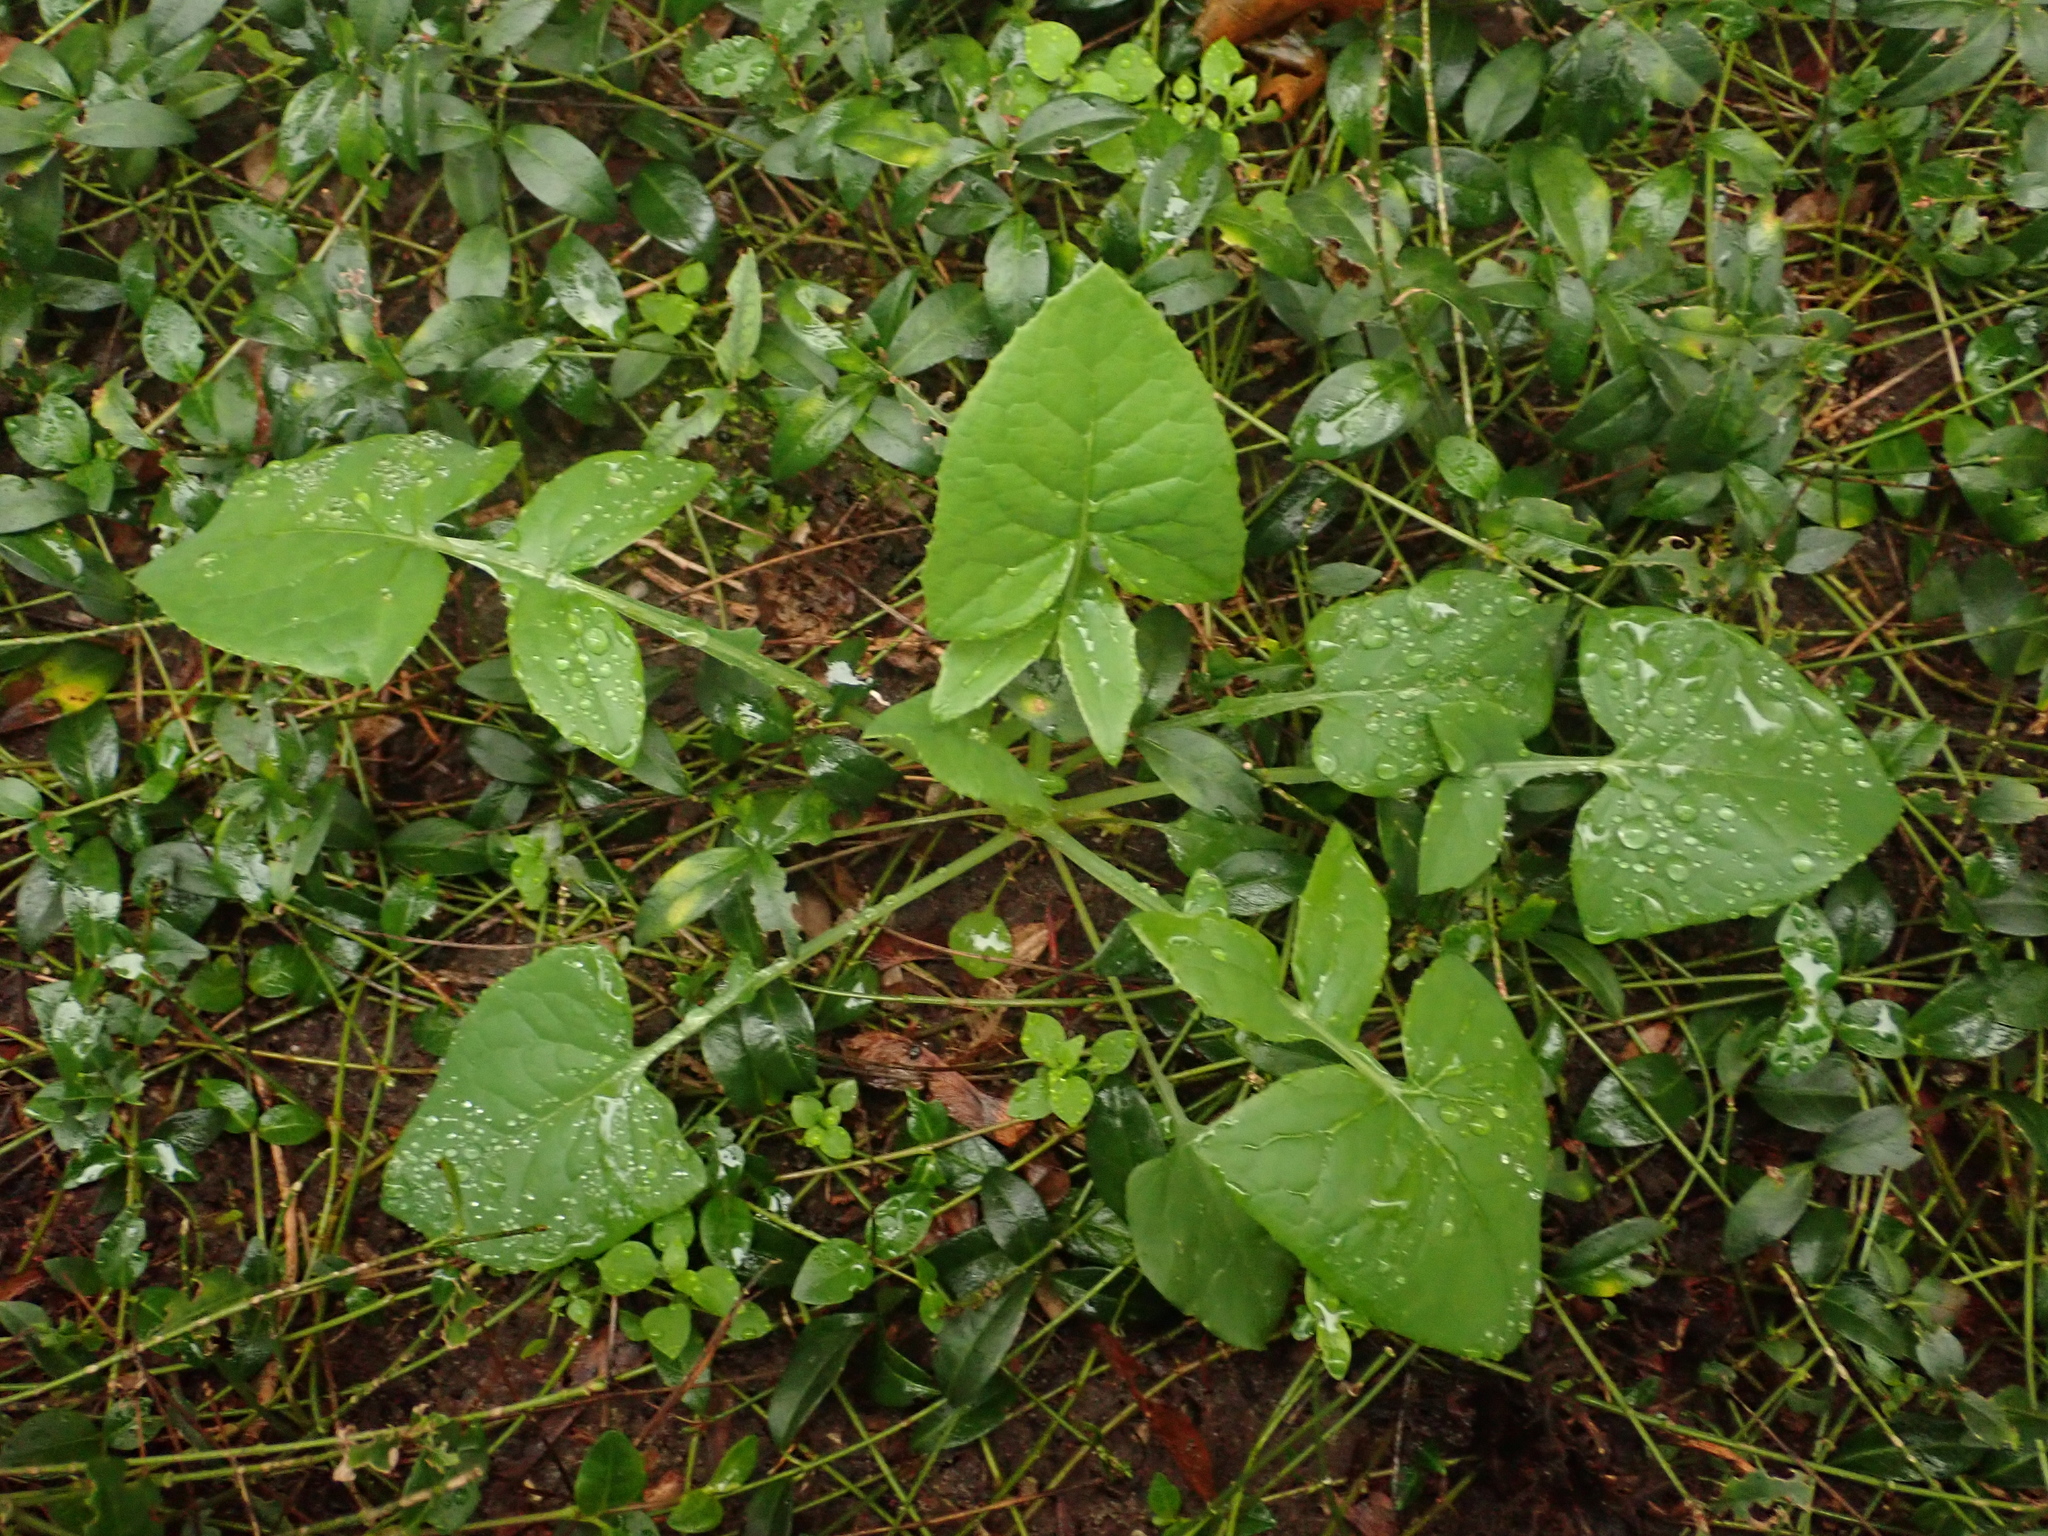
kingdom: Plantae
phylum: Tracheophyta
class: Magnoliopsida
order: Asterales
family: Asteraceae
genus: Sonchus
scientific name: Sonchus oleraceus
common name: Common sowthistle
